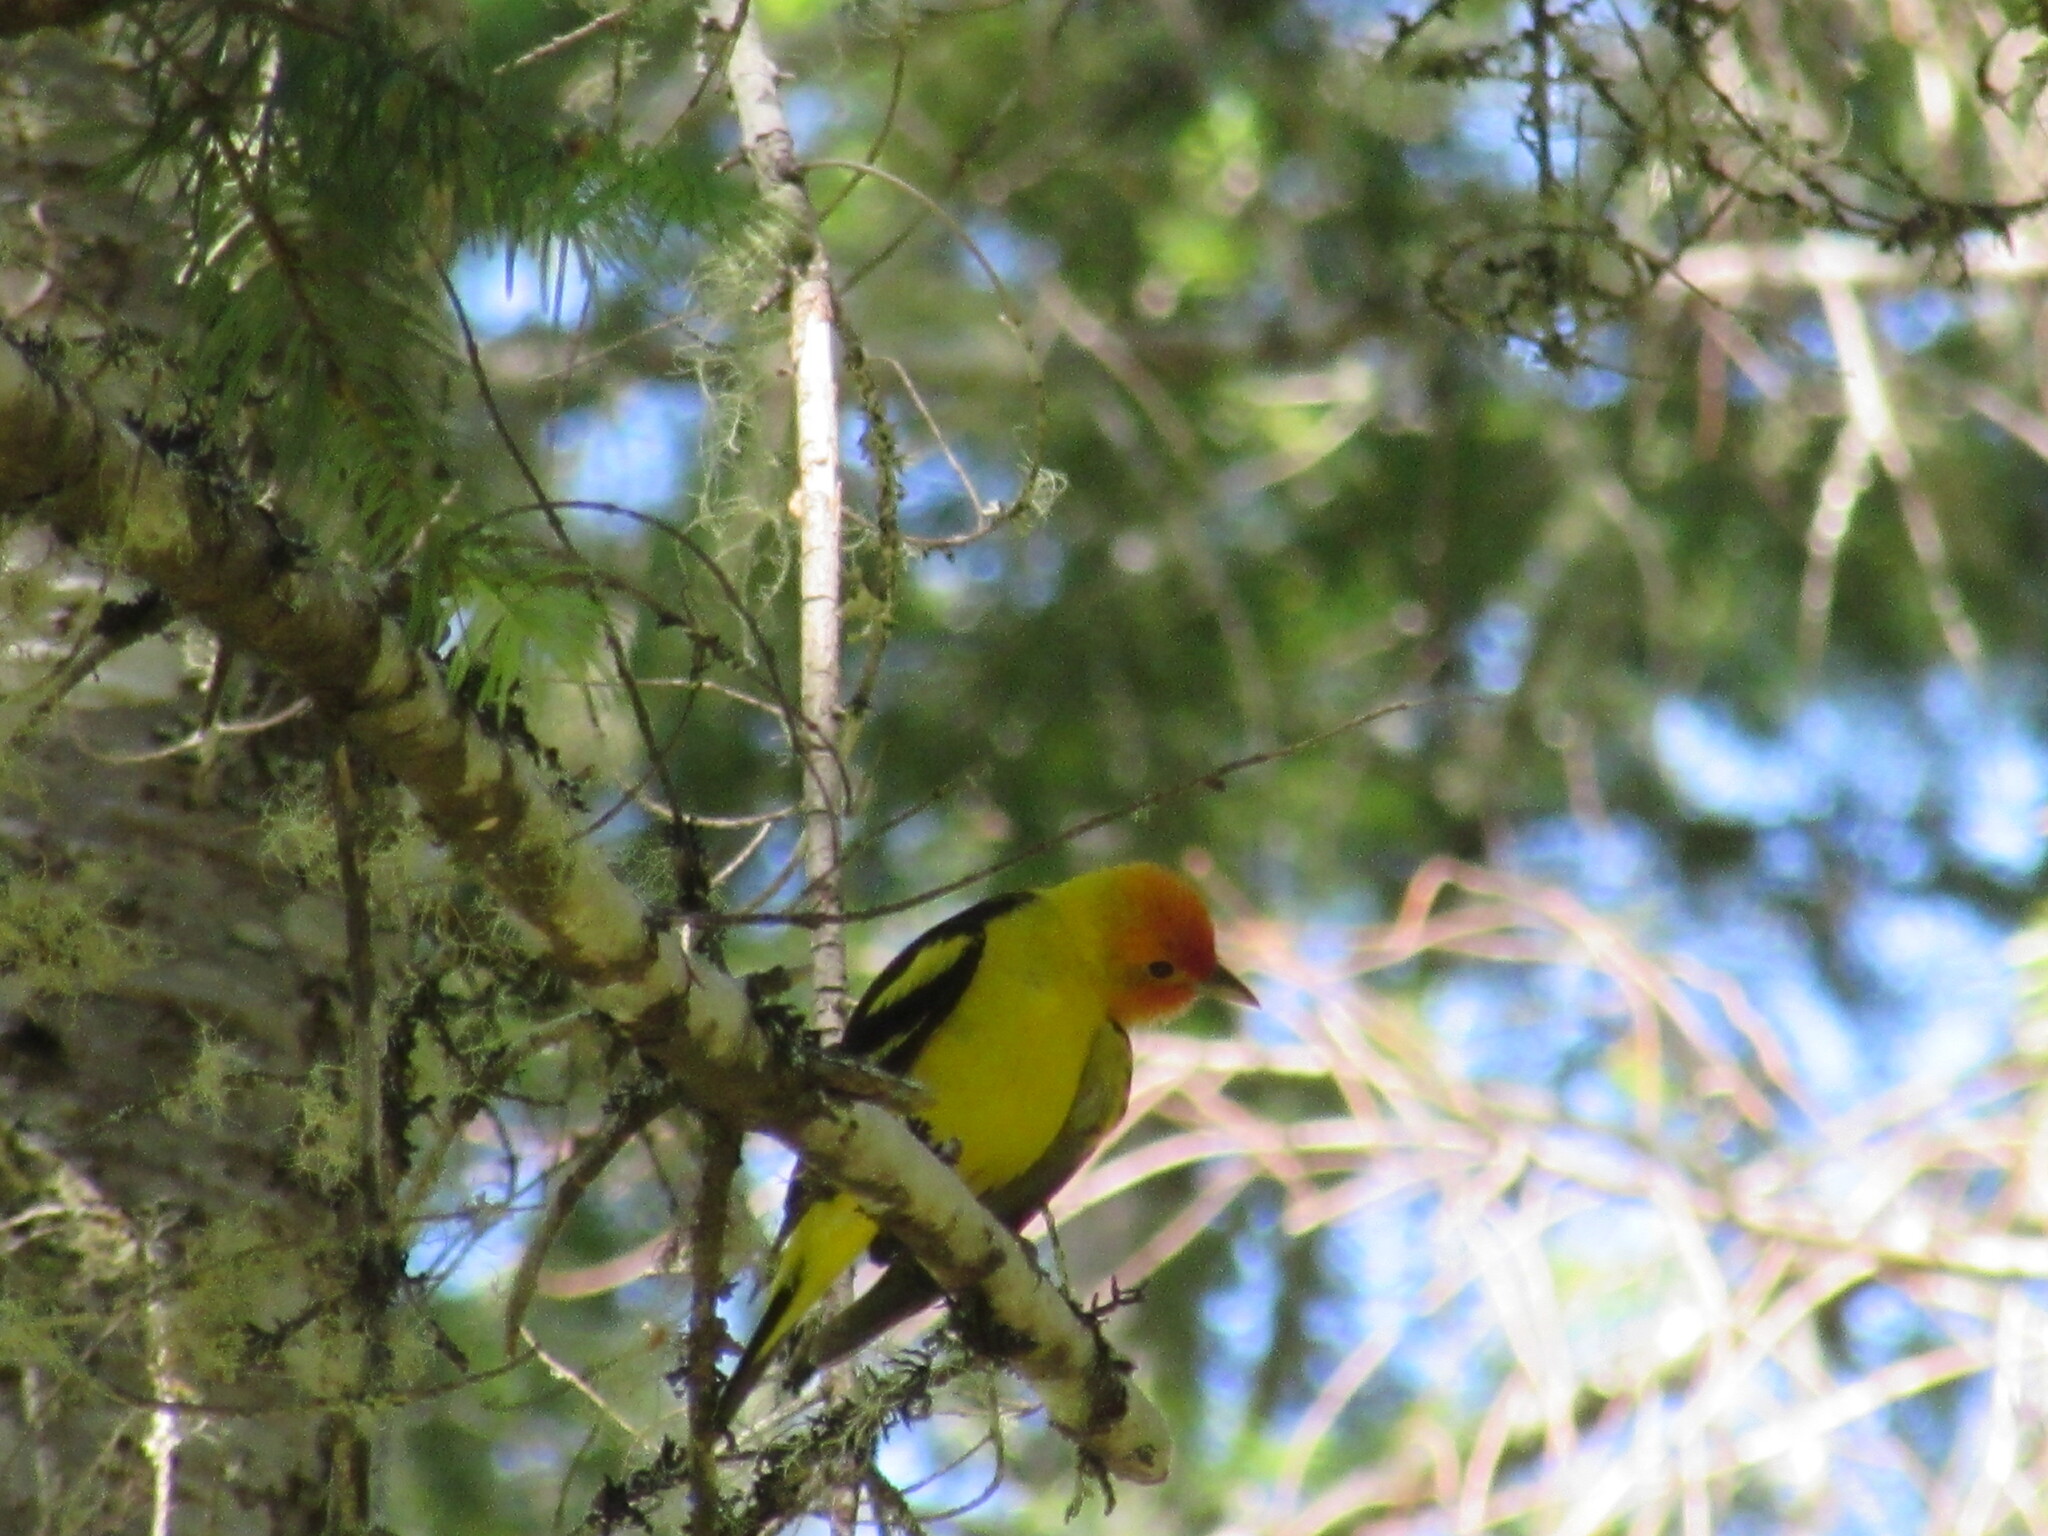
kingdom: Animalia
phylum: Chordata
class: Aves
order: Passeriformes
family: Cardinalidae
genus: Piranga
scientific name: Piranga ludoviciana
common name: Western tanager
